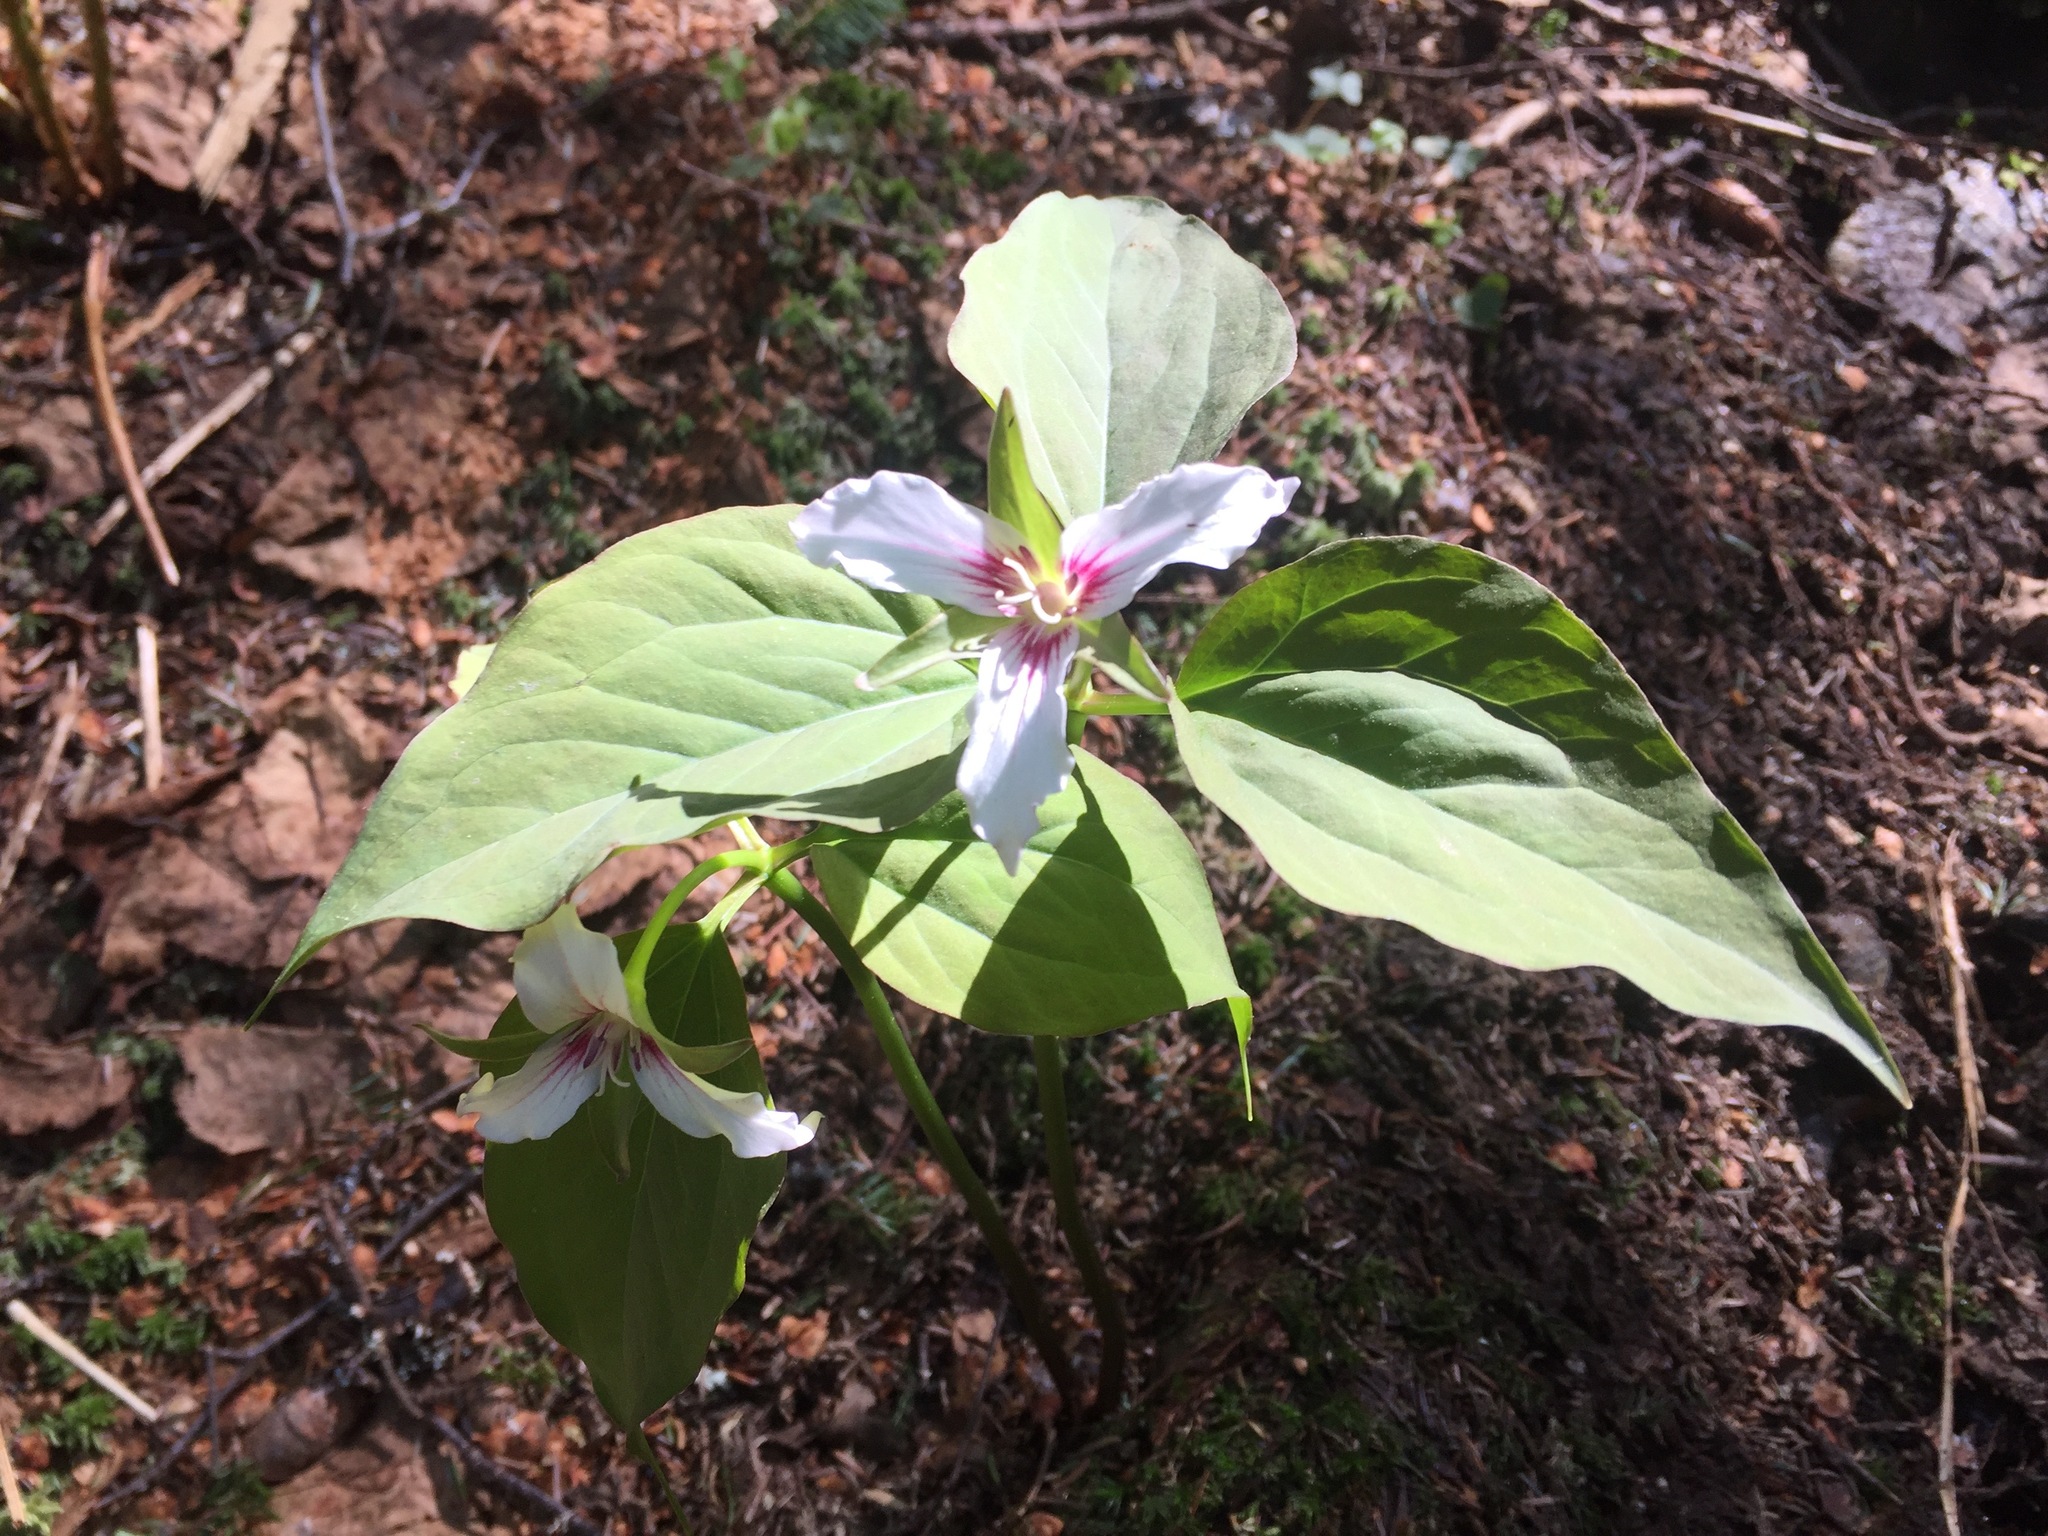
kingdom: Plantae
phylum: Tracheophyta
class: Liliopsida
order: Liliales
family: Melanthiaceae
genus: Trillium
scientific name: Trillium undulatum
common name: Paint trillium
